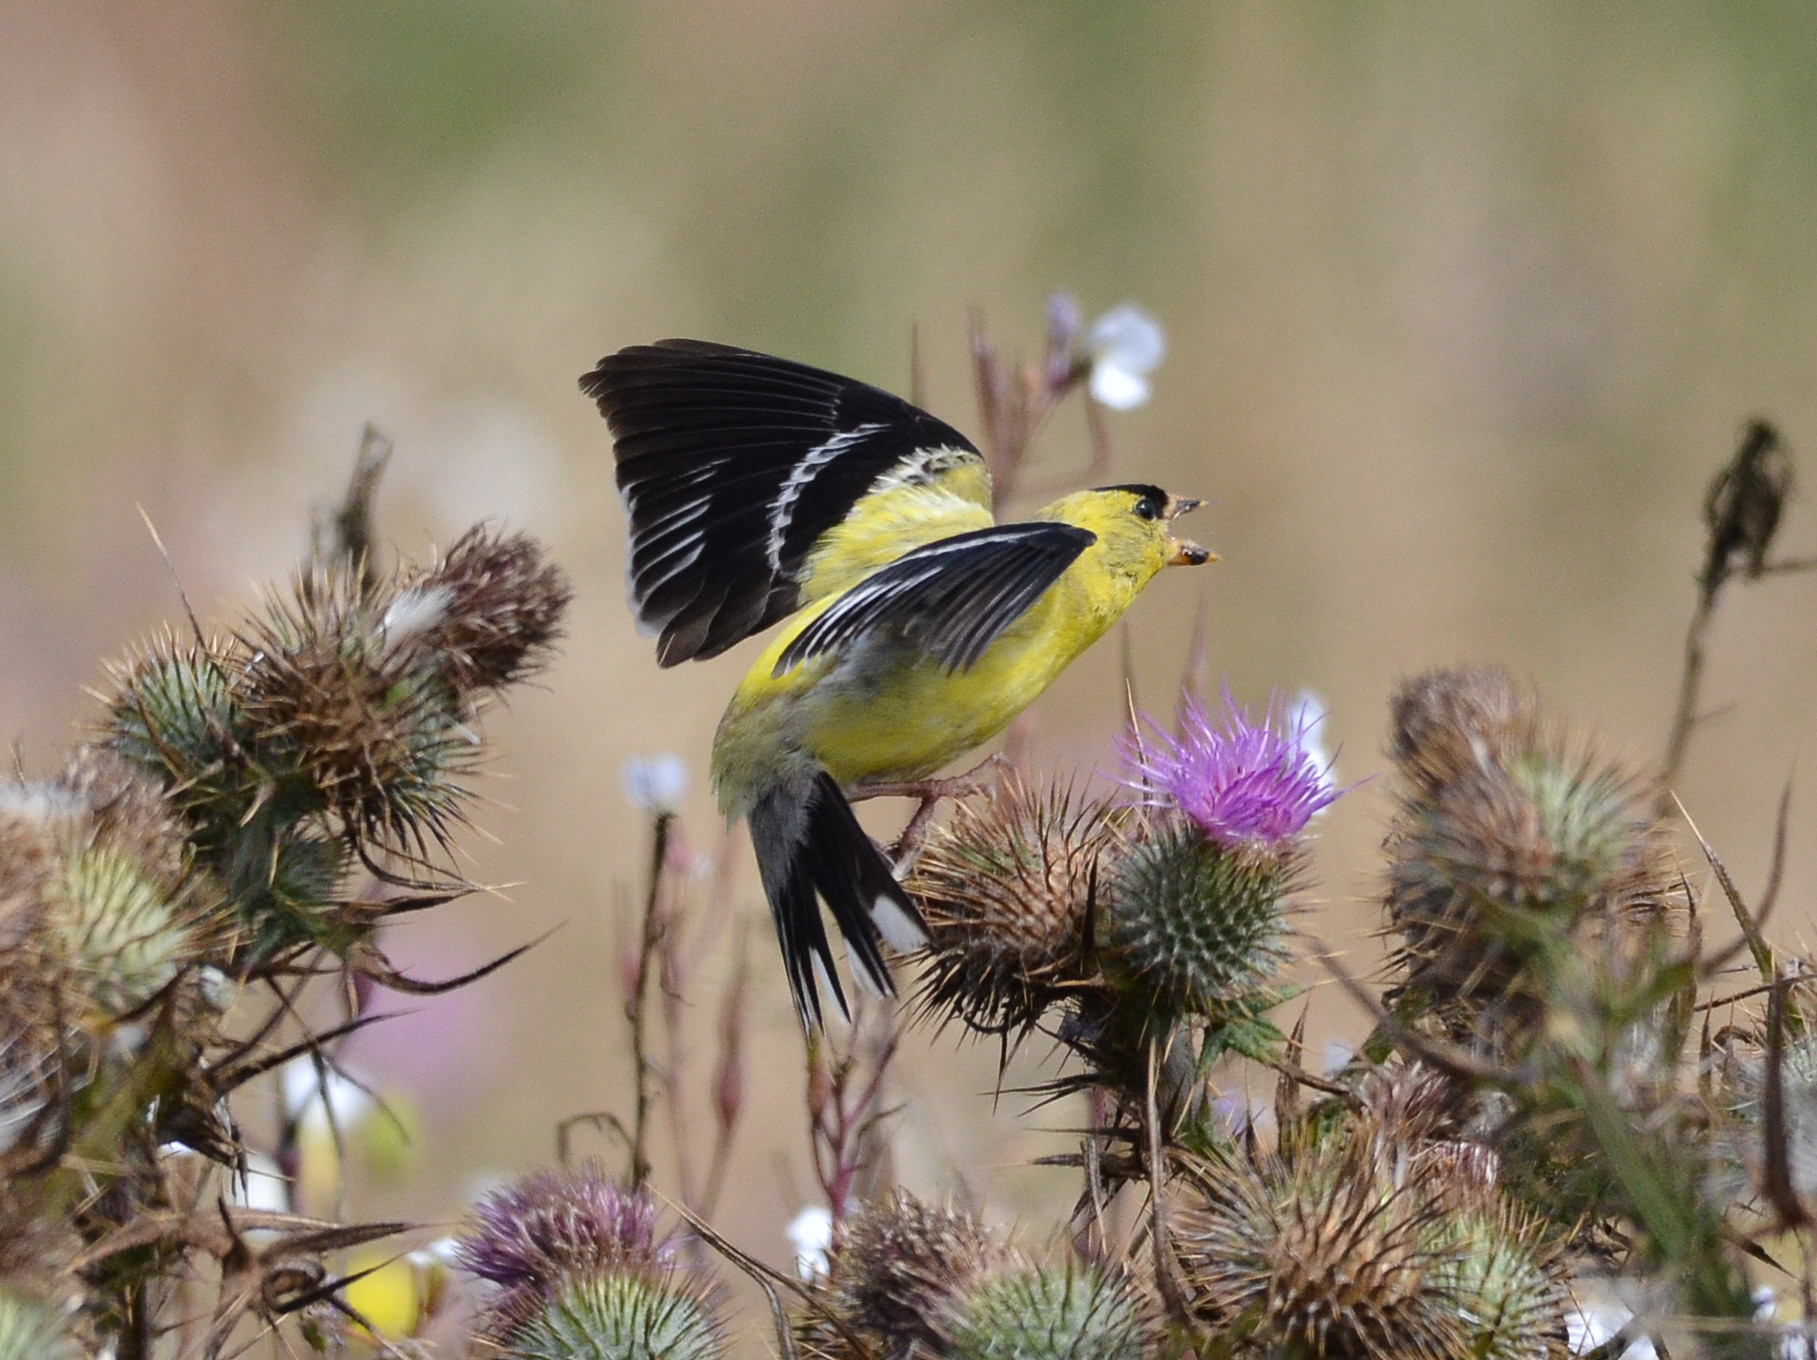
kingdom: Animalia
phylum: Chordata
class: Aves
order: Passeriformes
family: Fringillidae
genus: Spinus
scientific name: Spinus tristis
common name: American goldfinch
